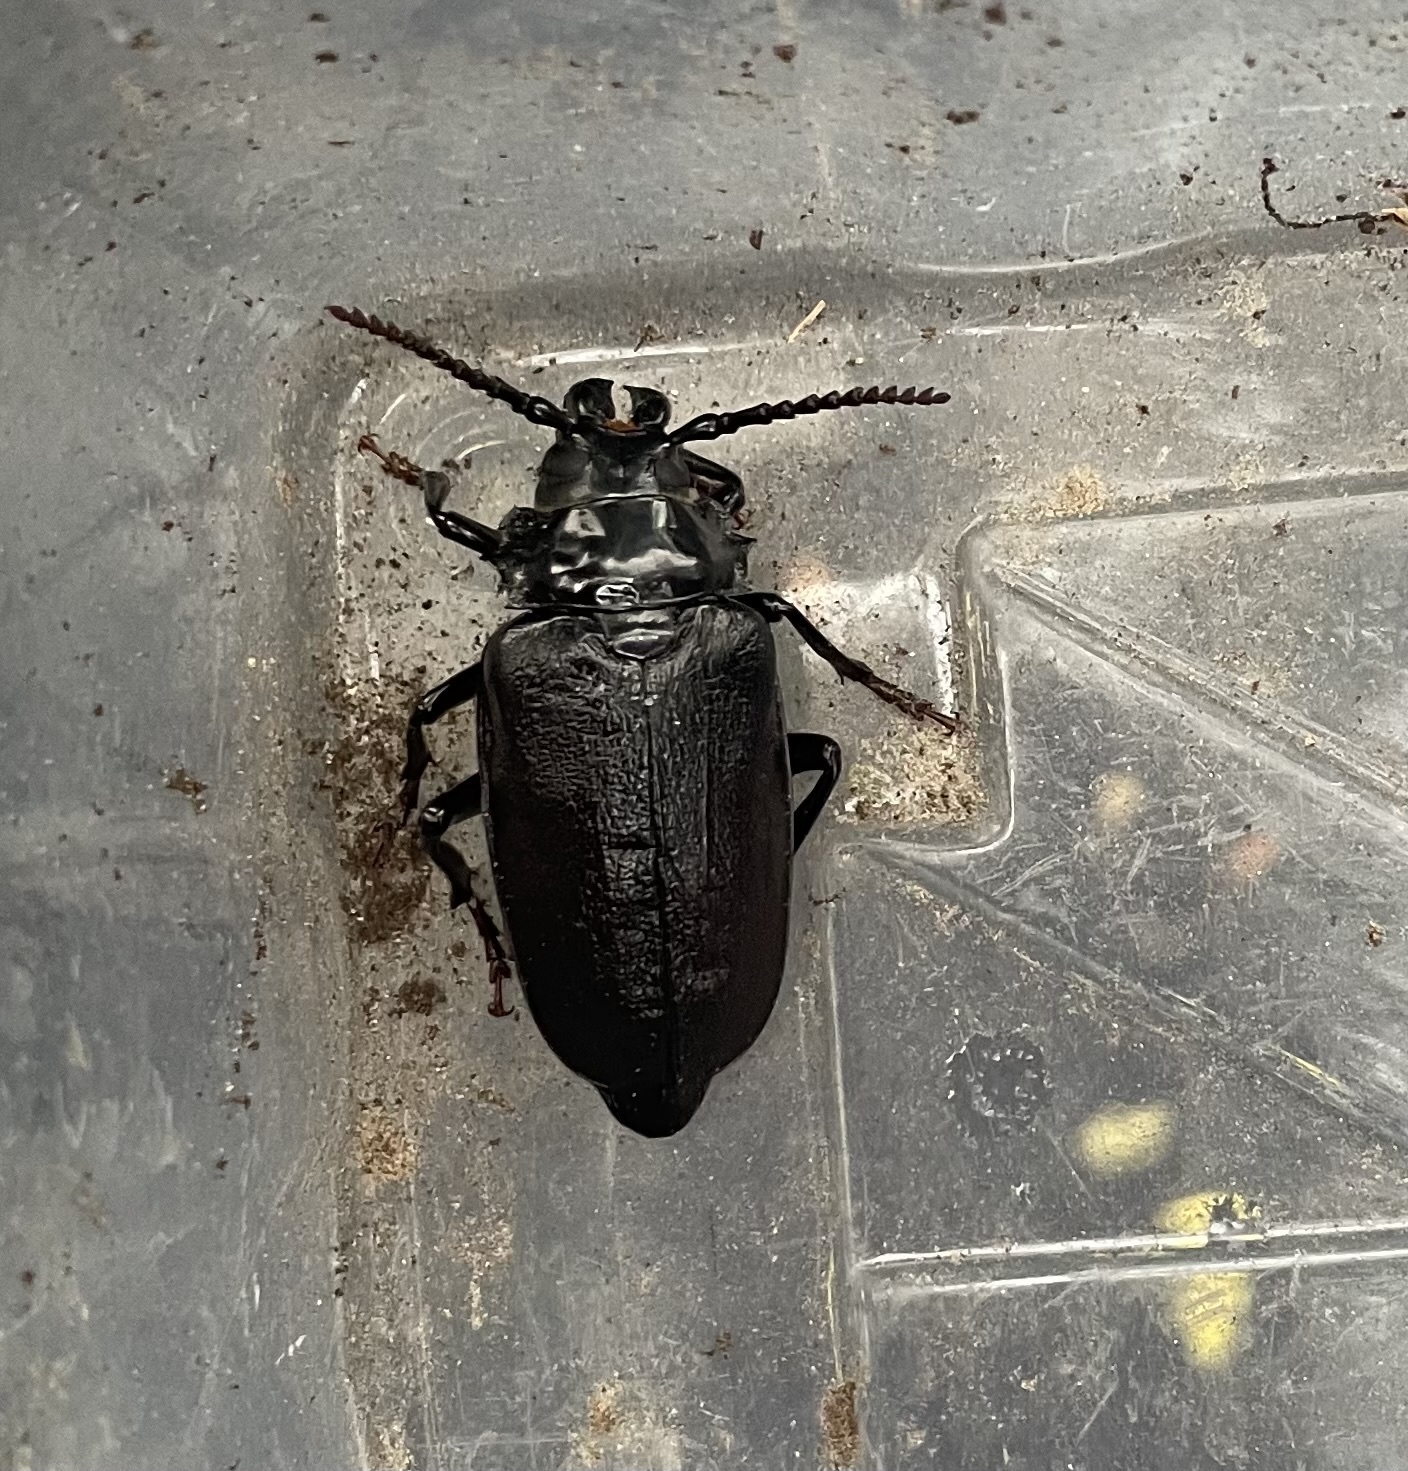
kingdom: Animalia
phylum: Arthropoda
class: Insecta
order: Coleoptera
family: Cerambycidae
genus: Prionus
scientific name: Prionus laticollis
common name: Broad necked prionus
